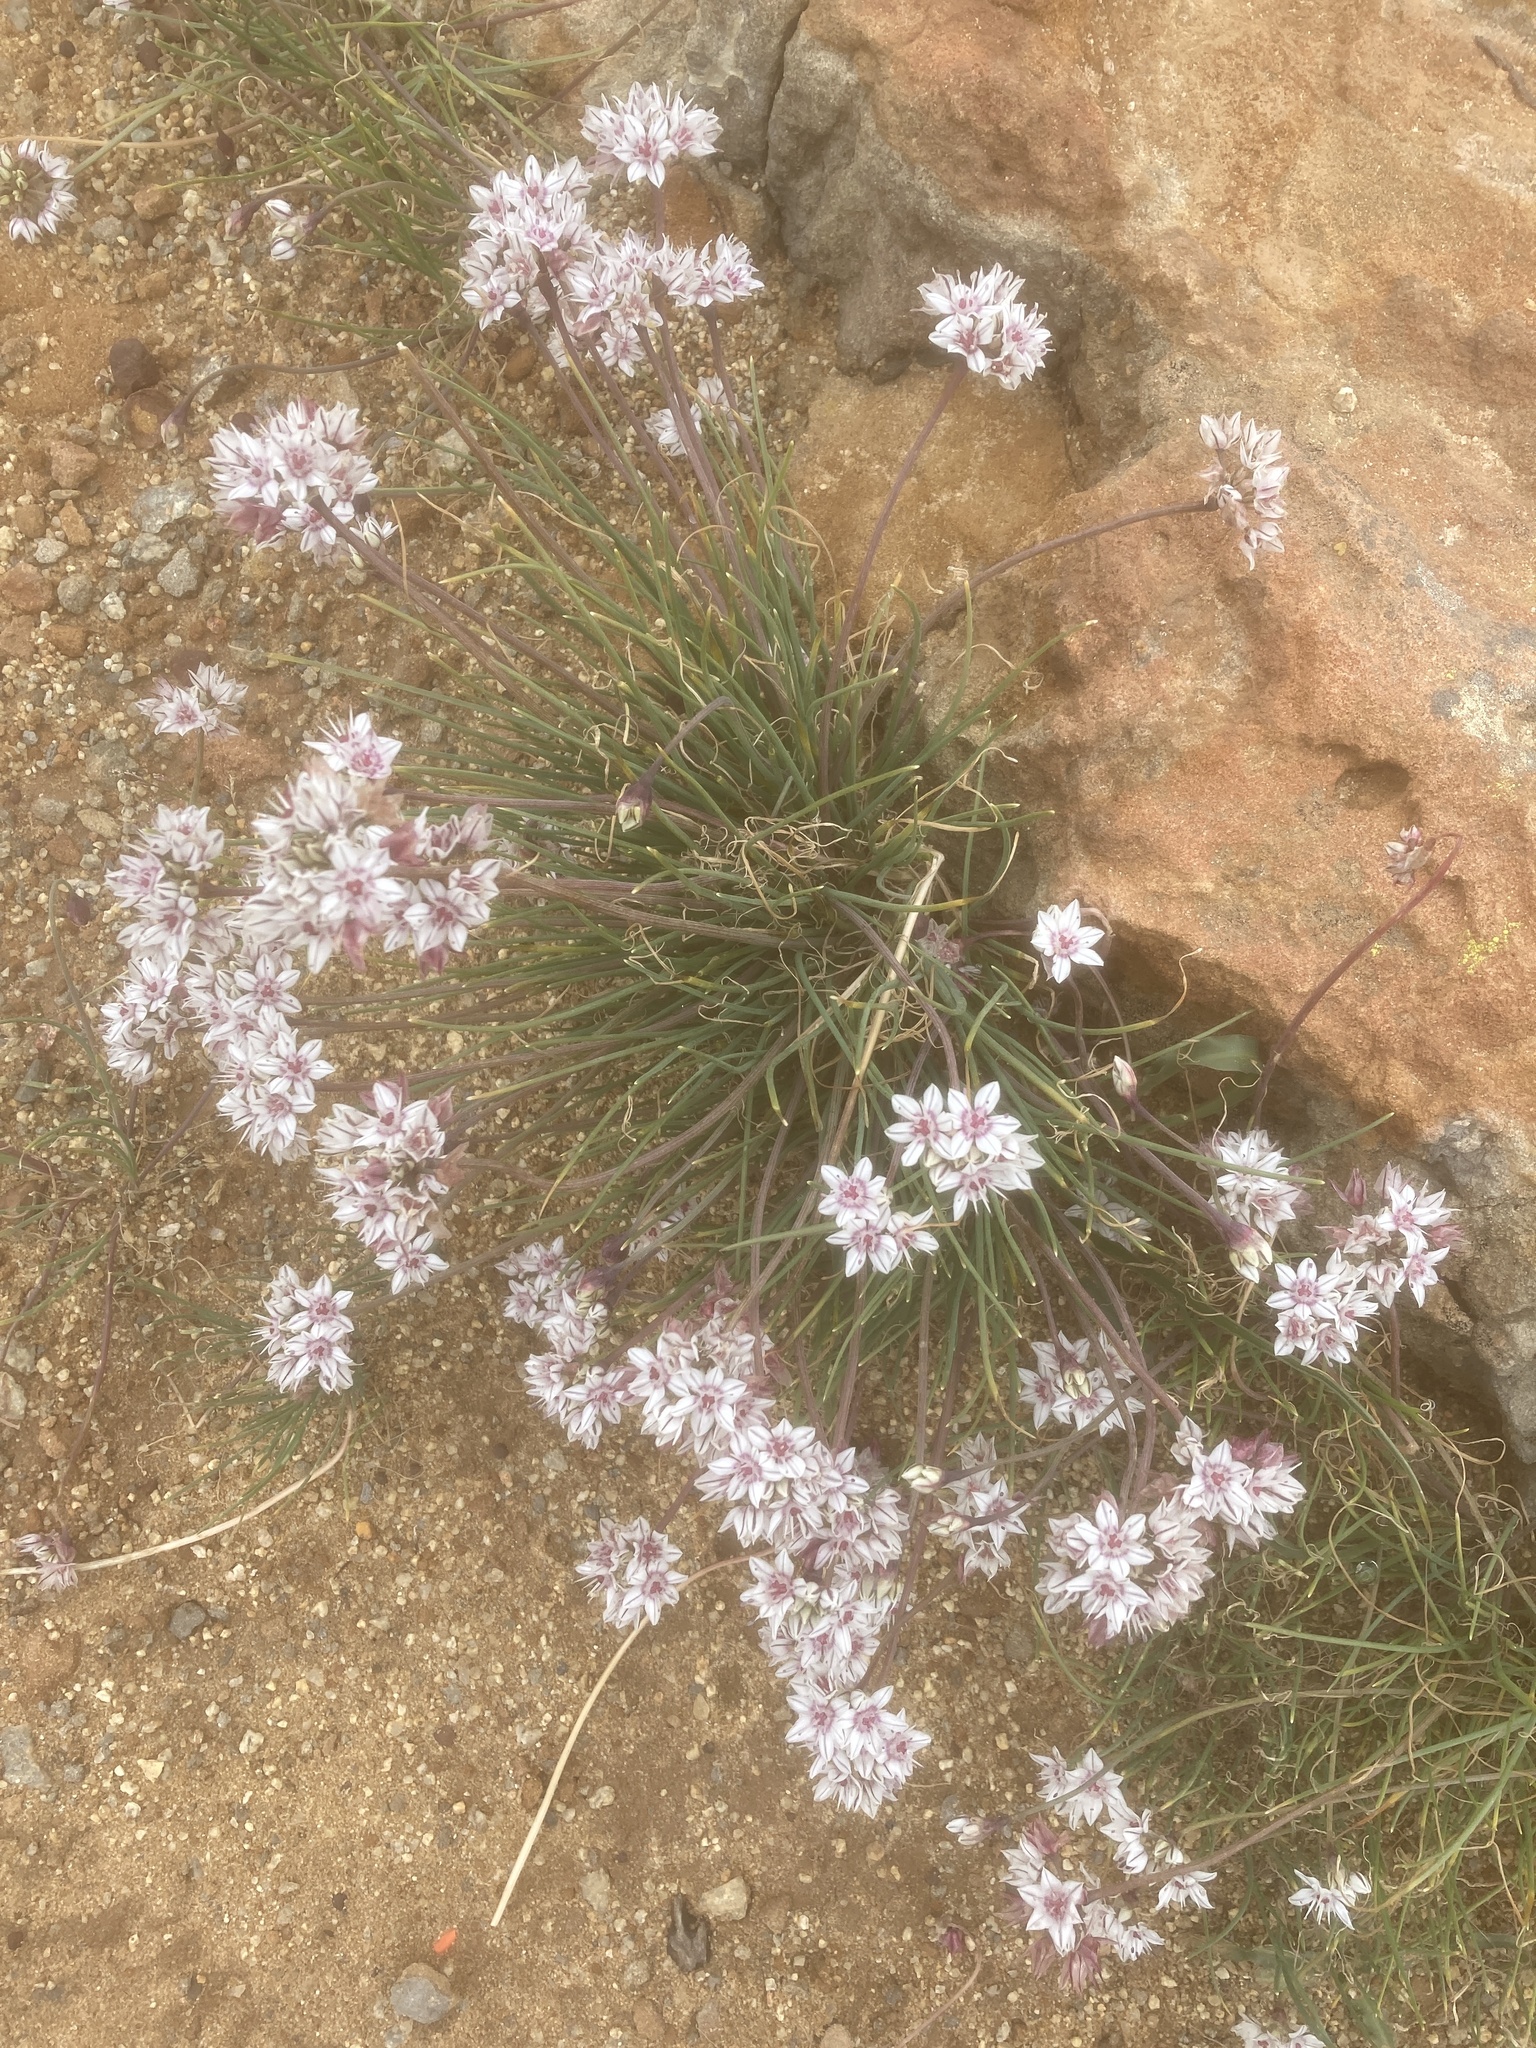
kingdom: Plantae
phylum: Tracheophyta
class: Liliopsida
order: Asparagales
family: Amaryllidaceae
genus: Allium
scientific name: Allium haematochiton
